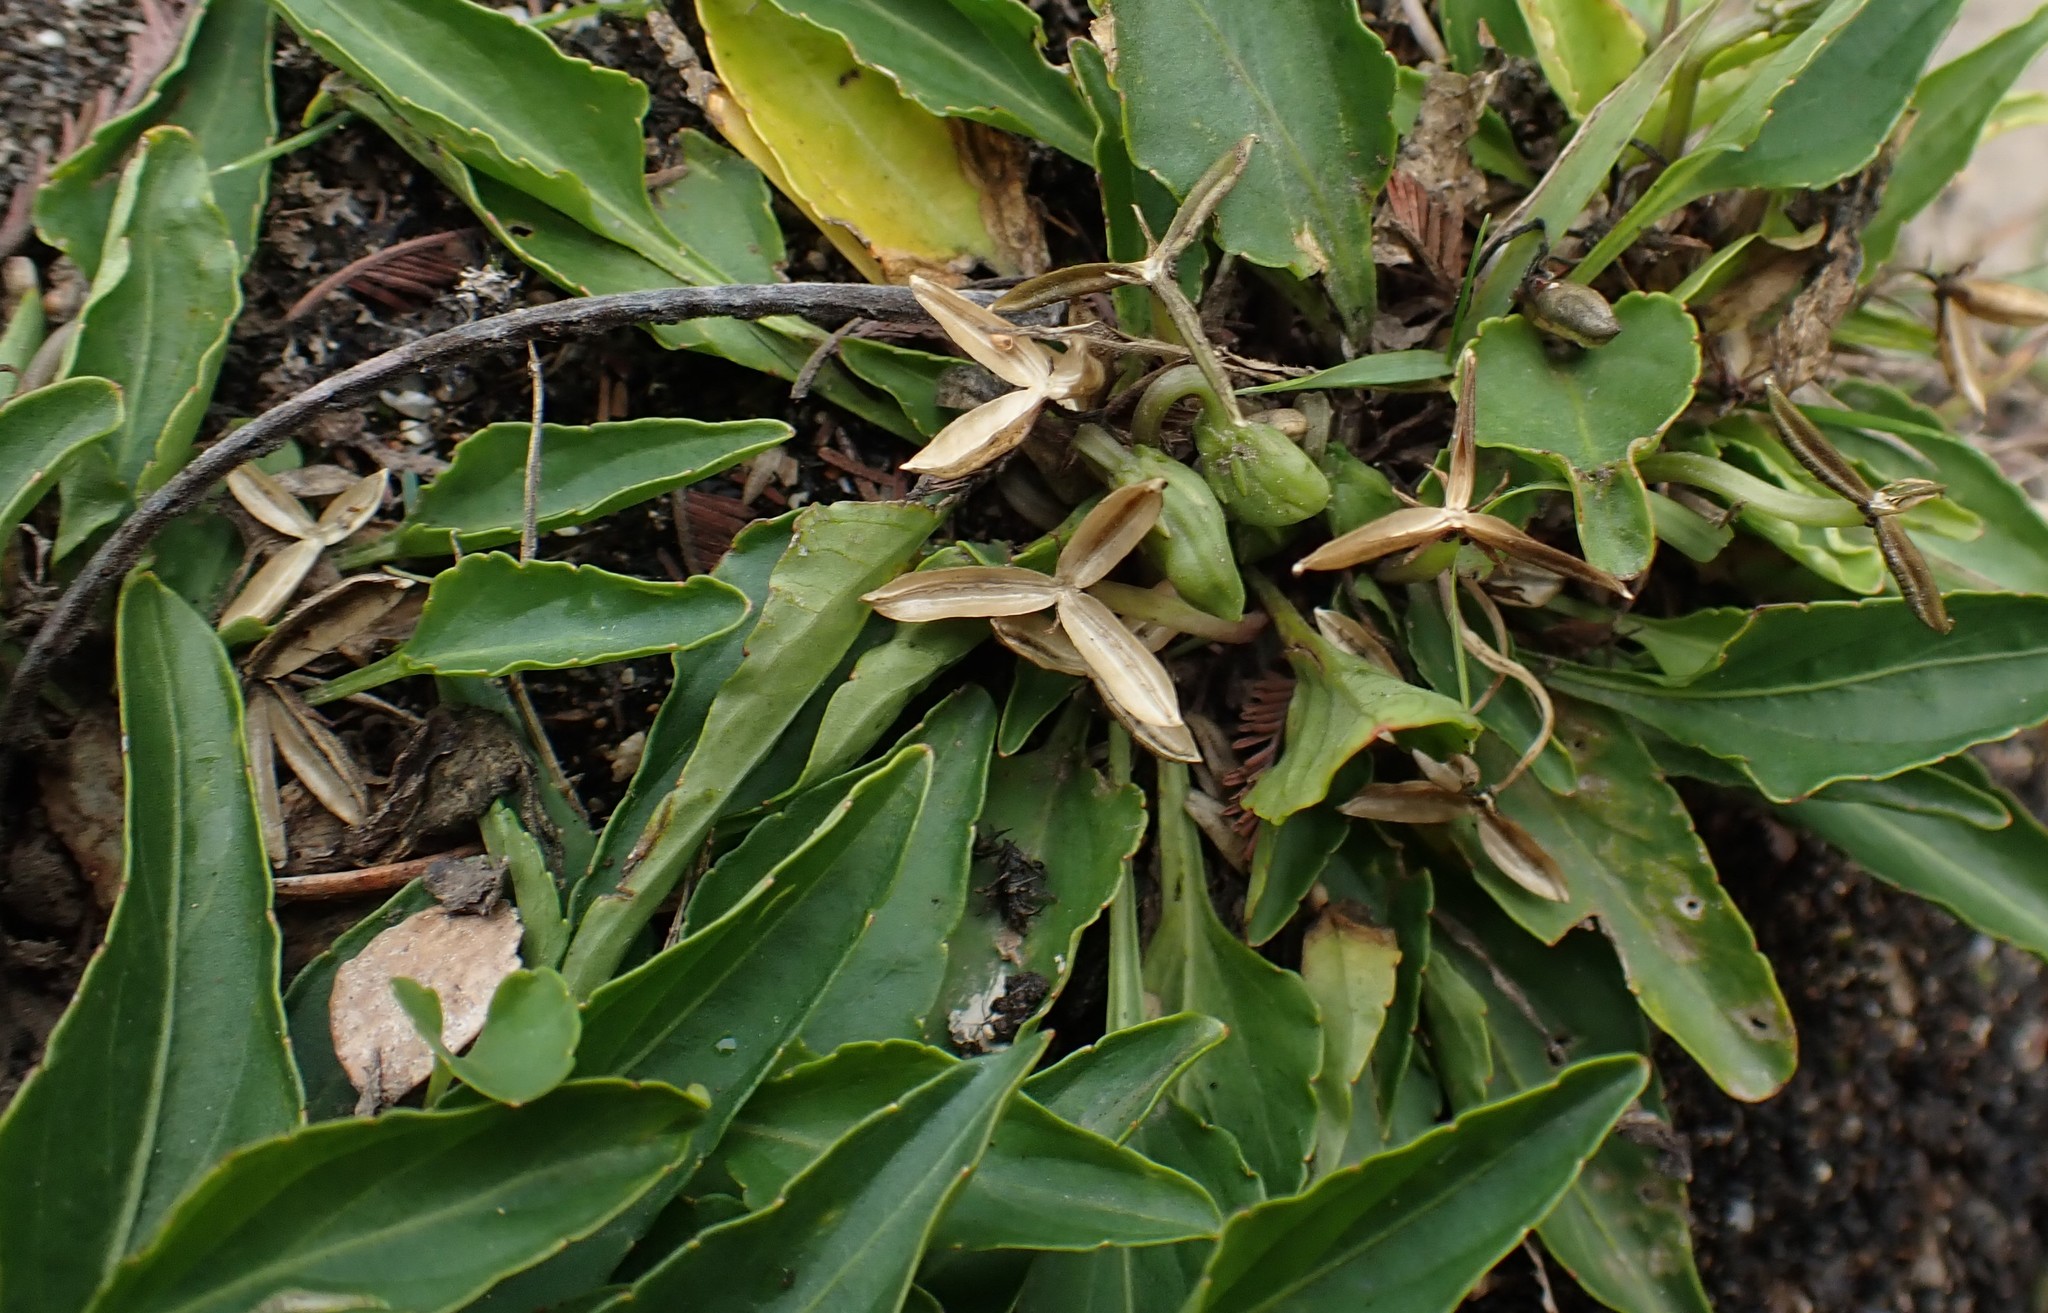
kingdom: Plantae
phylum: Tracheophyta
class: Magnoliopsida
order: Malpighiales
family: Violaceae
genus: Viola
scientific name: Viola betonicifolia
